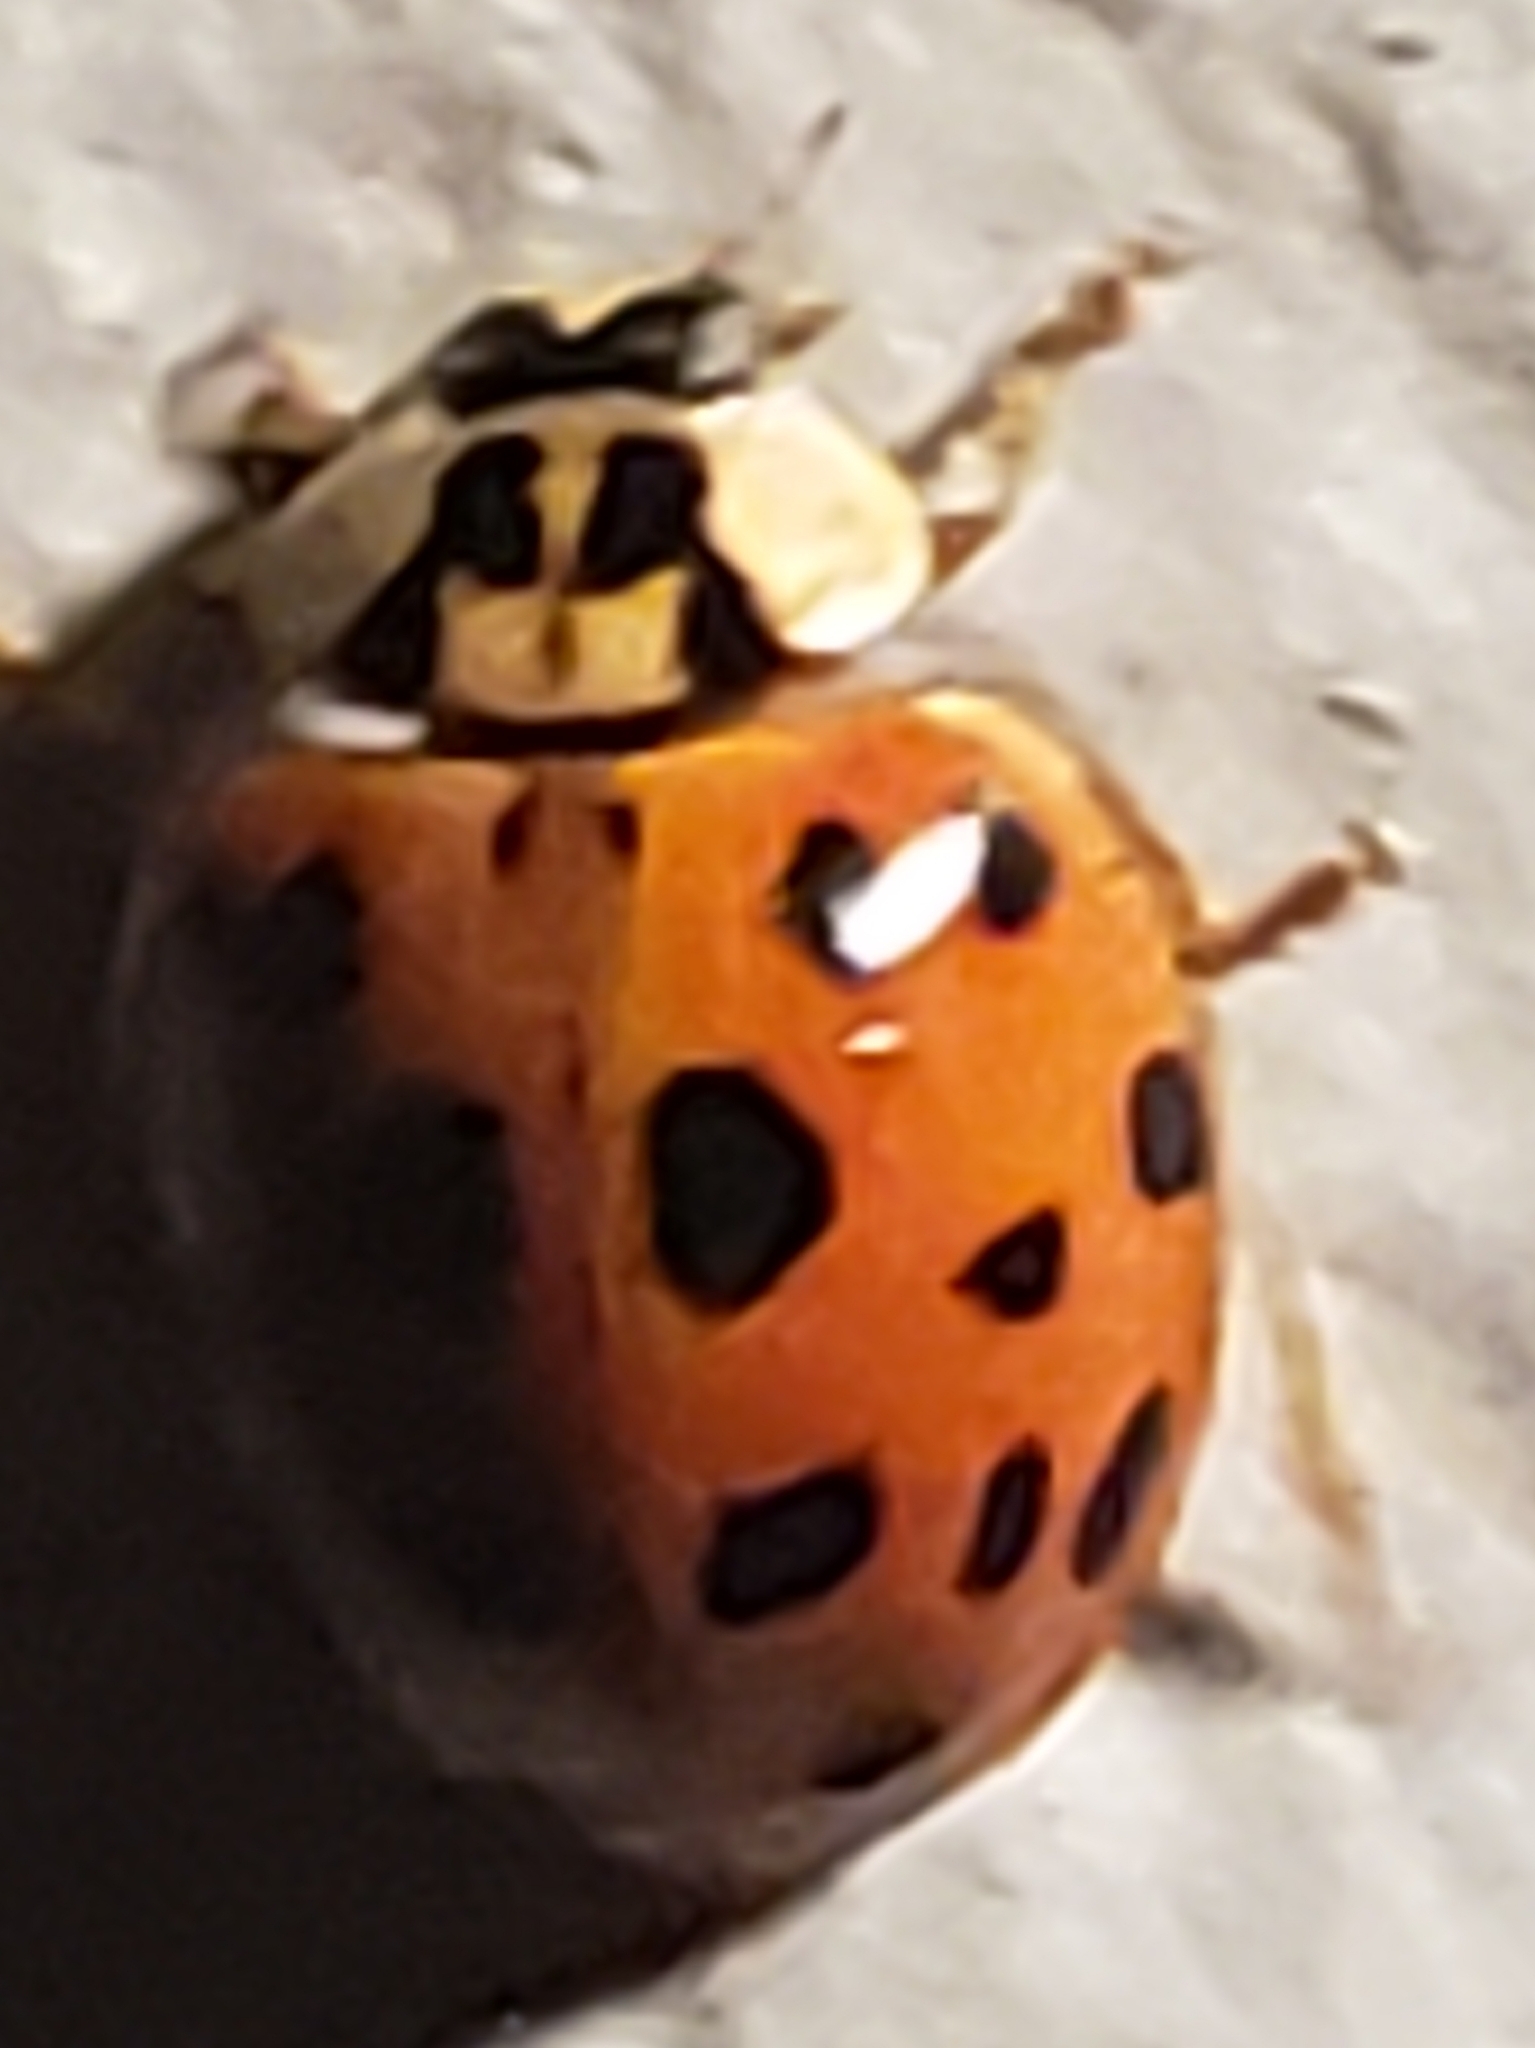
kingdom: Animalia
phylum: Arthropoda
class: Insecta
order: Coleoptera
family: Coccinellidae
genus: Harmonia
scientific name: Harmonia axyridis
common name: Harlequin ladybird
